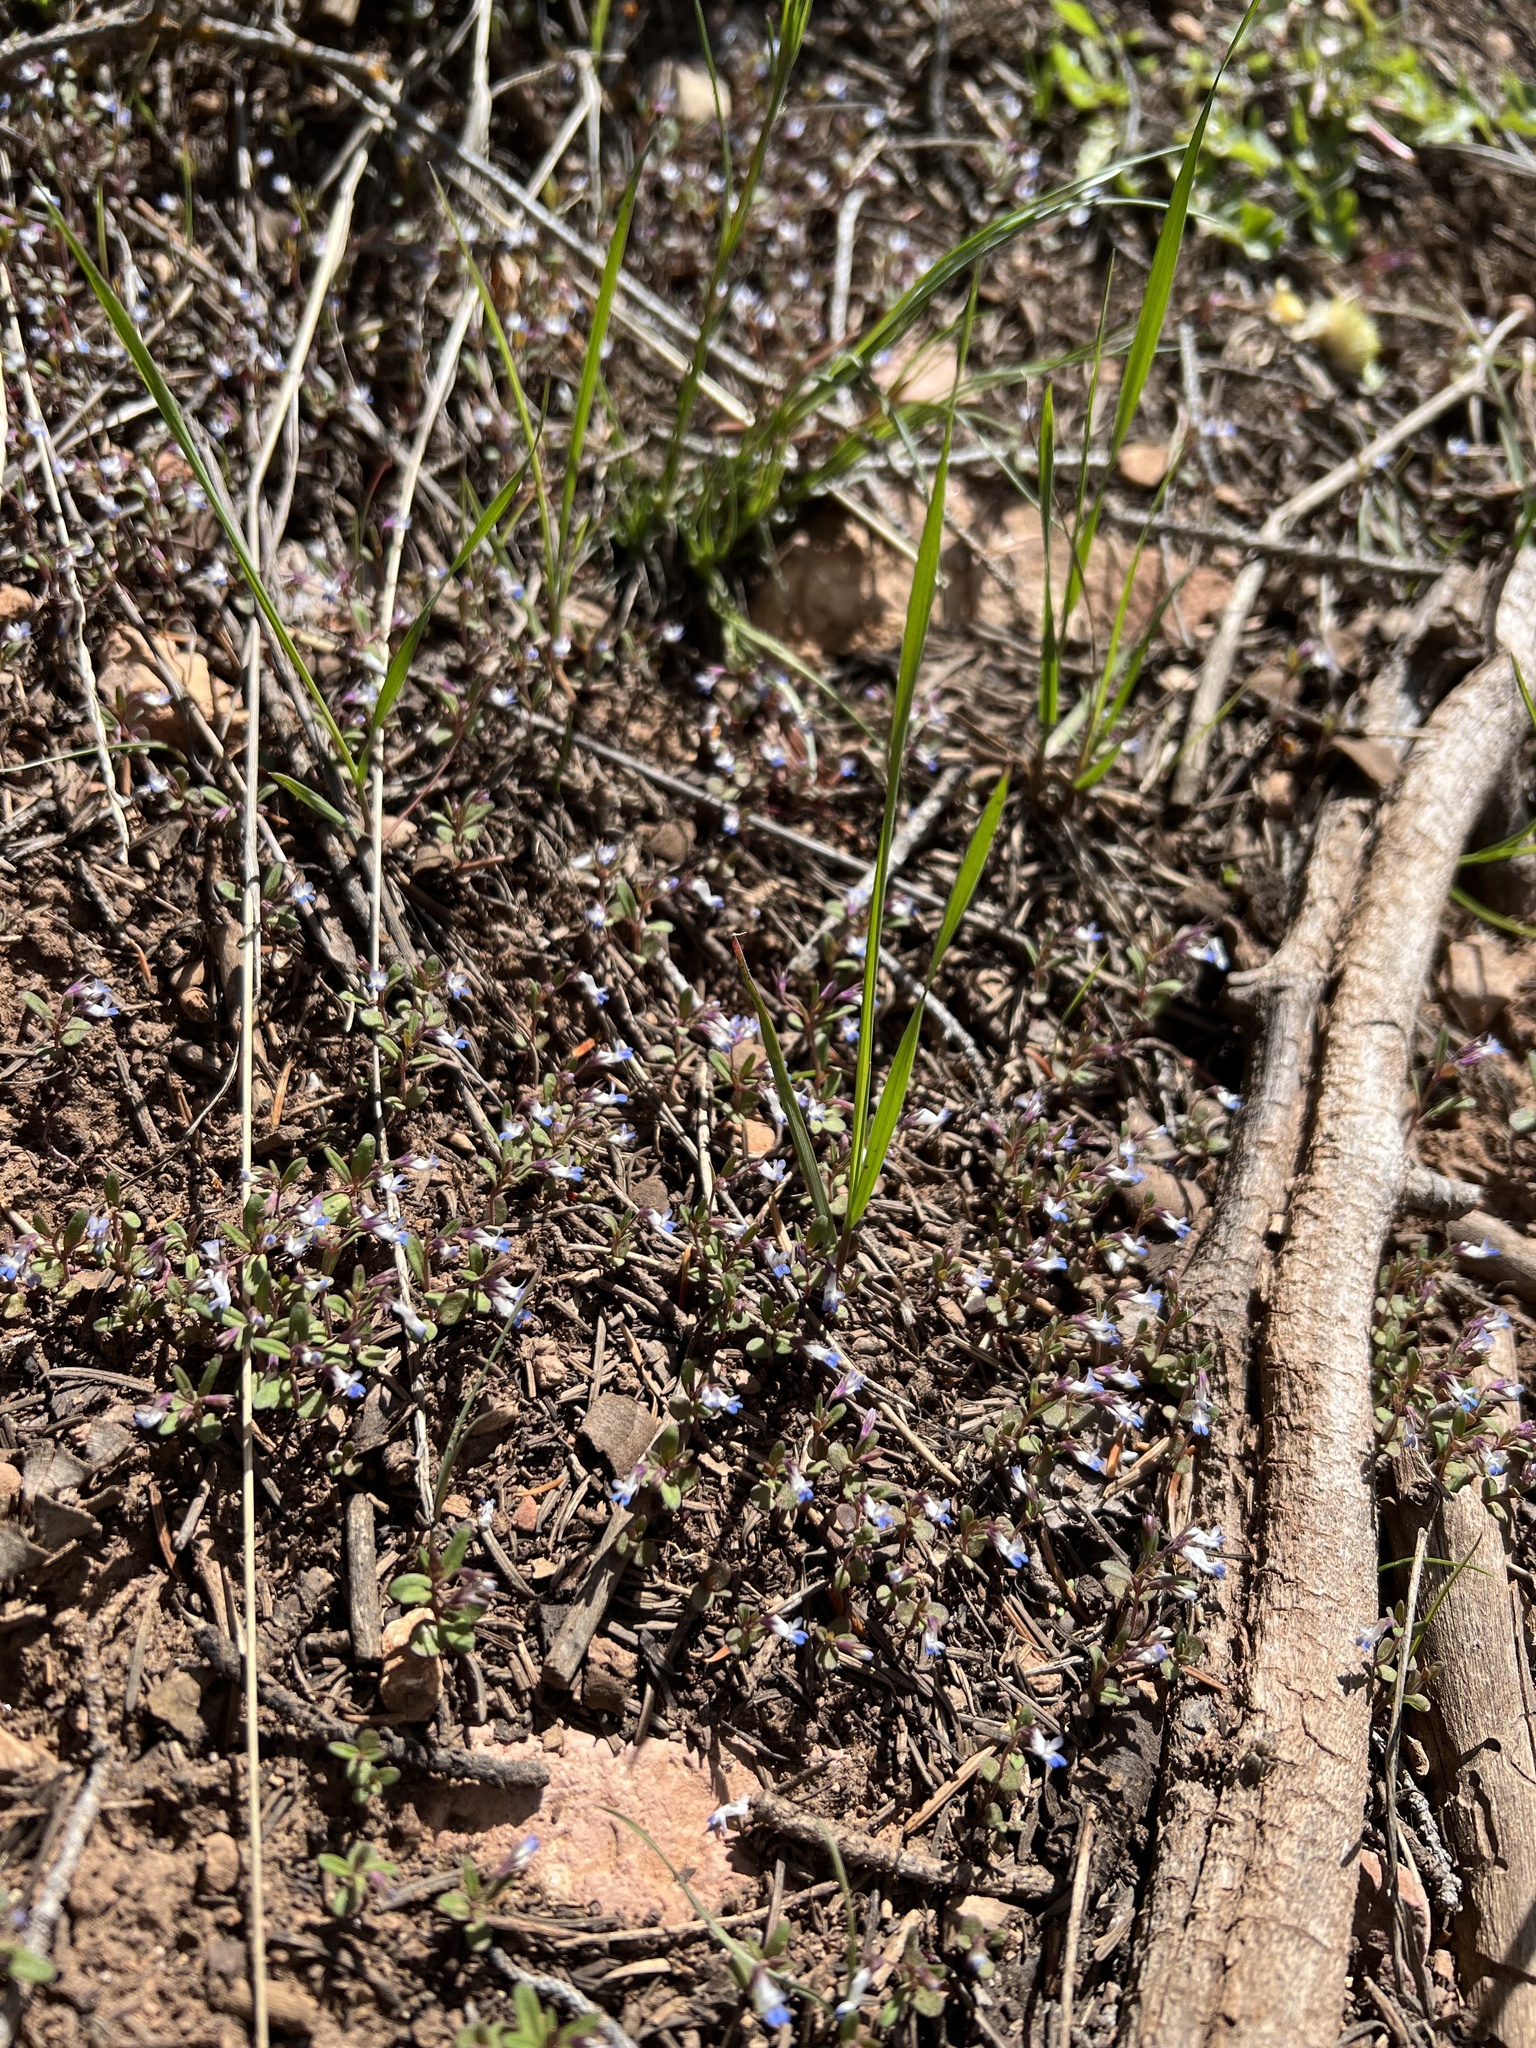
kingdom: Plantae
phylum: Tracheophyta
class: Magnoliopsida
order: Lamiales
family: Plantaginaceae
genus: Collinsia
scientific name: Collinsia parviflora
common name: Blue-lips
